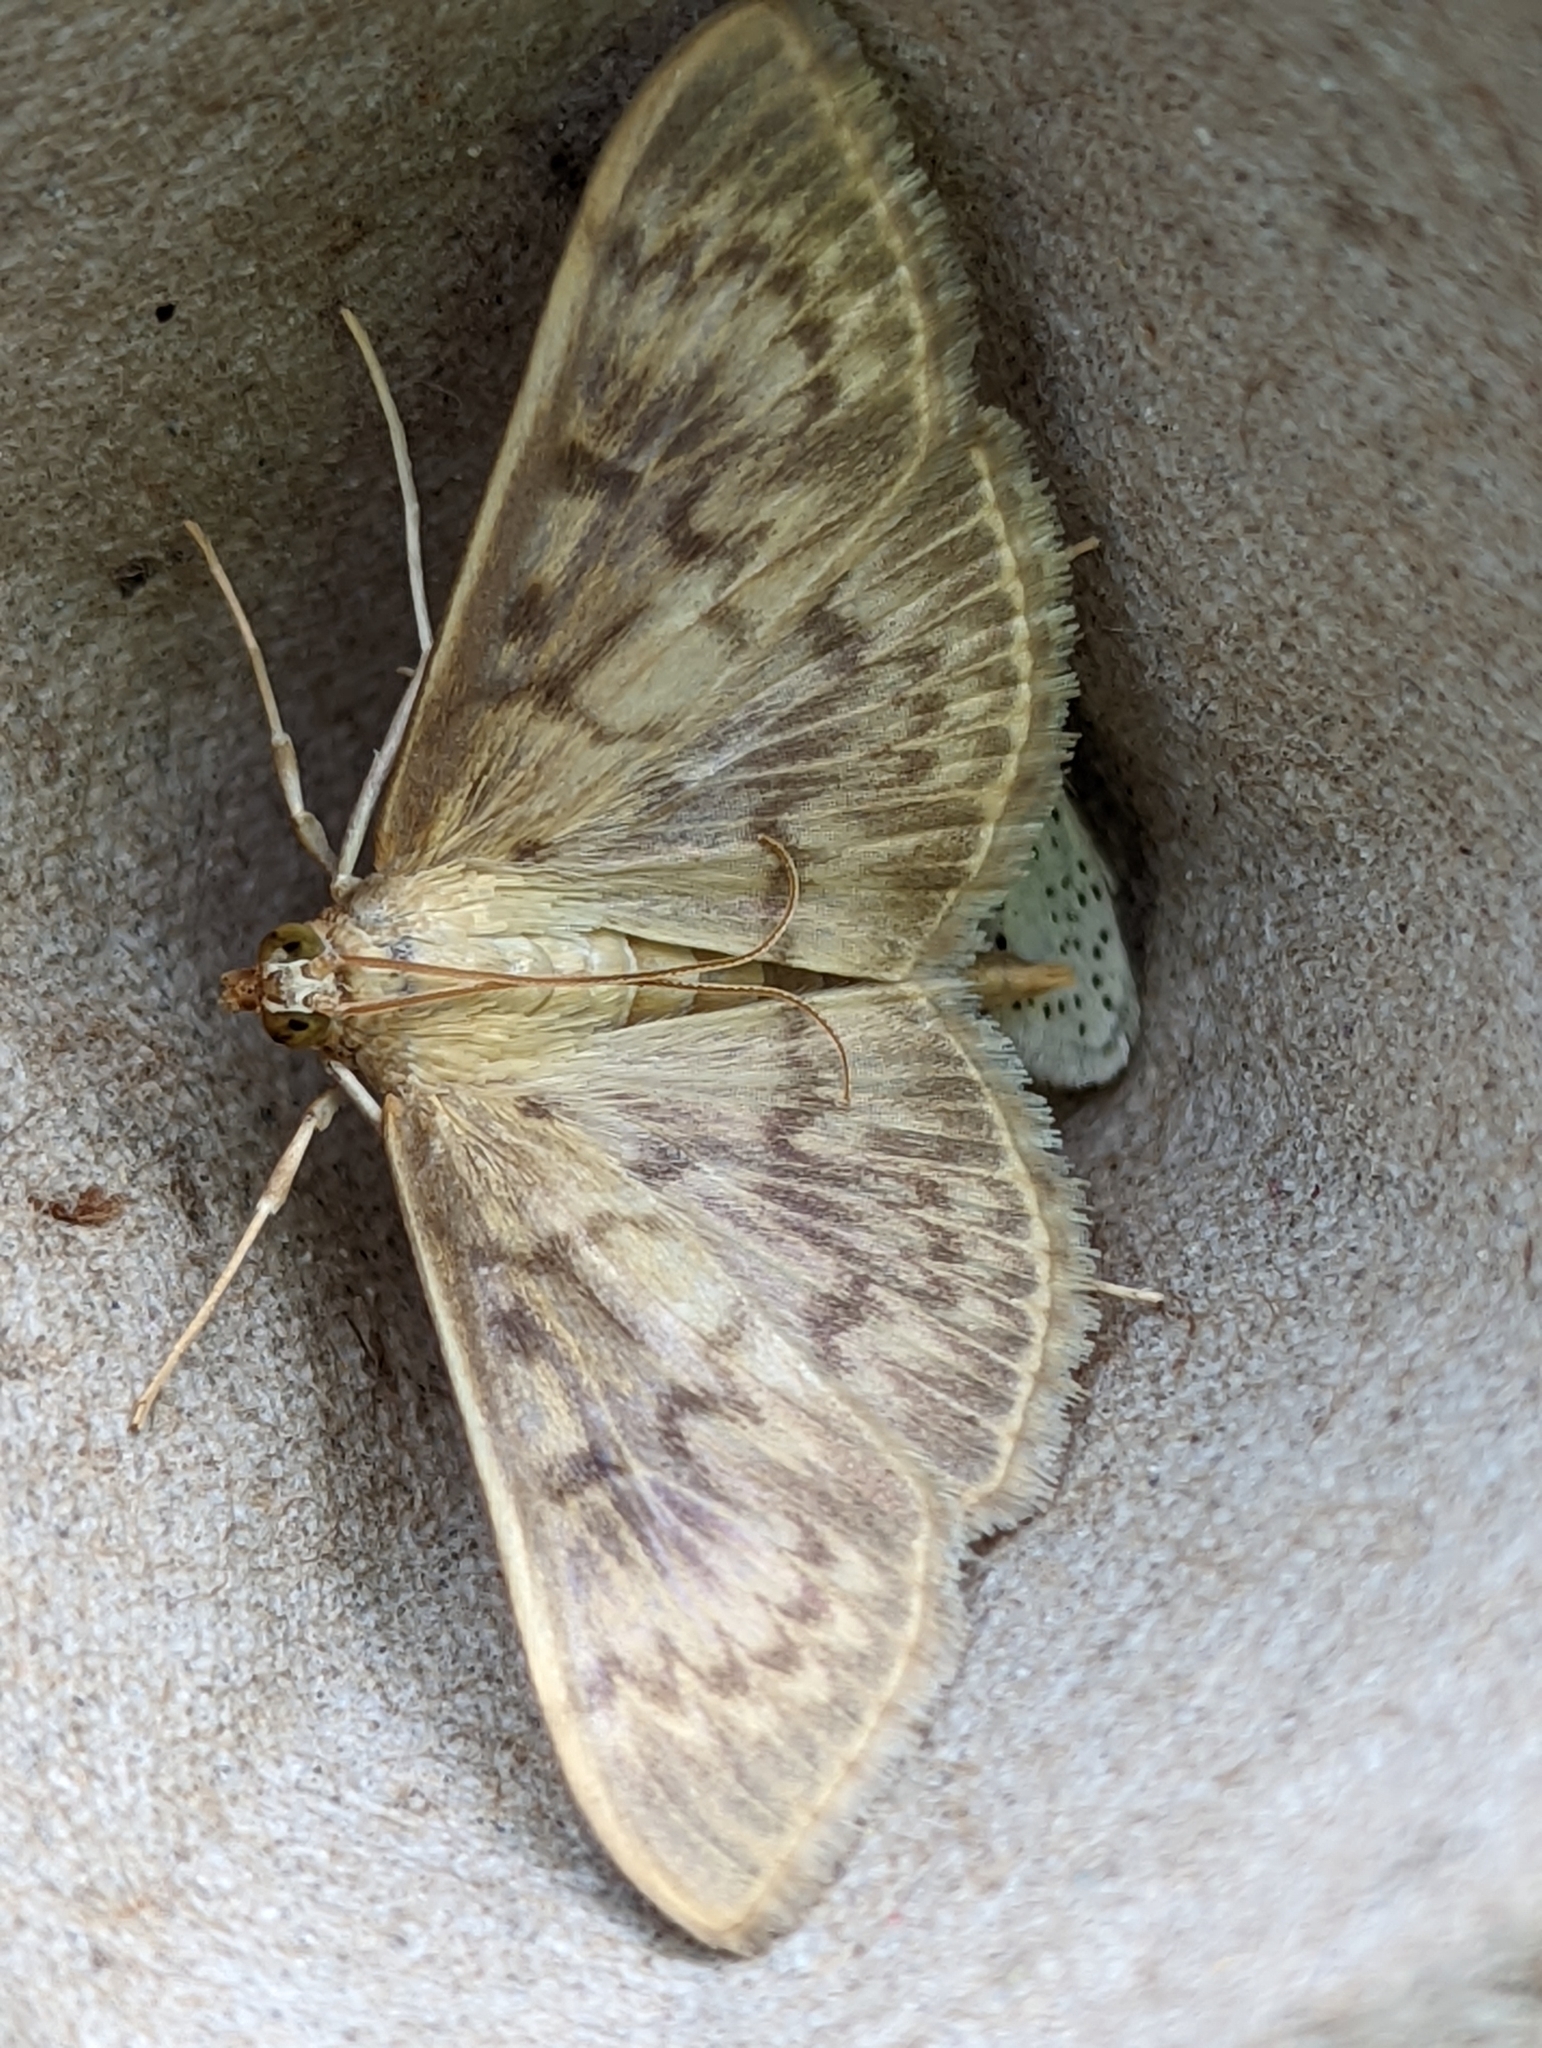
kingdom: Animalia
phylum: Arthropoda
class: Insecta
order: Lepidoptera
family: Crambidae
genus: Patania
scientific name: Patania ruralis
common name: Mother of pearl
